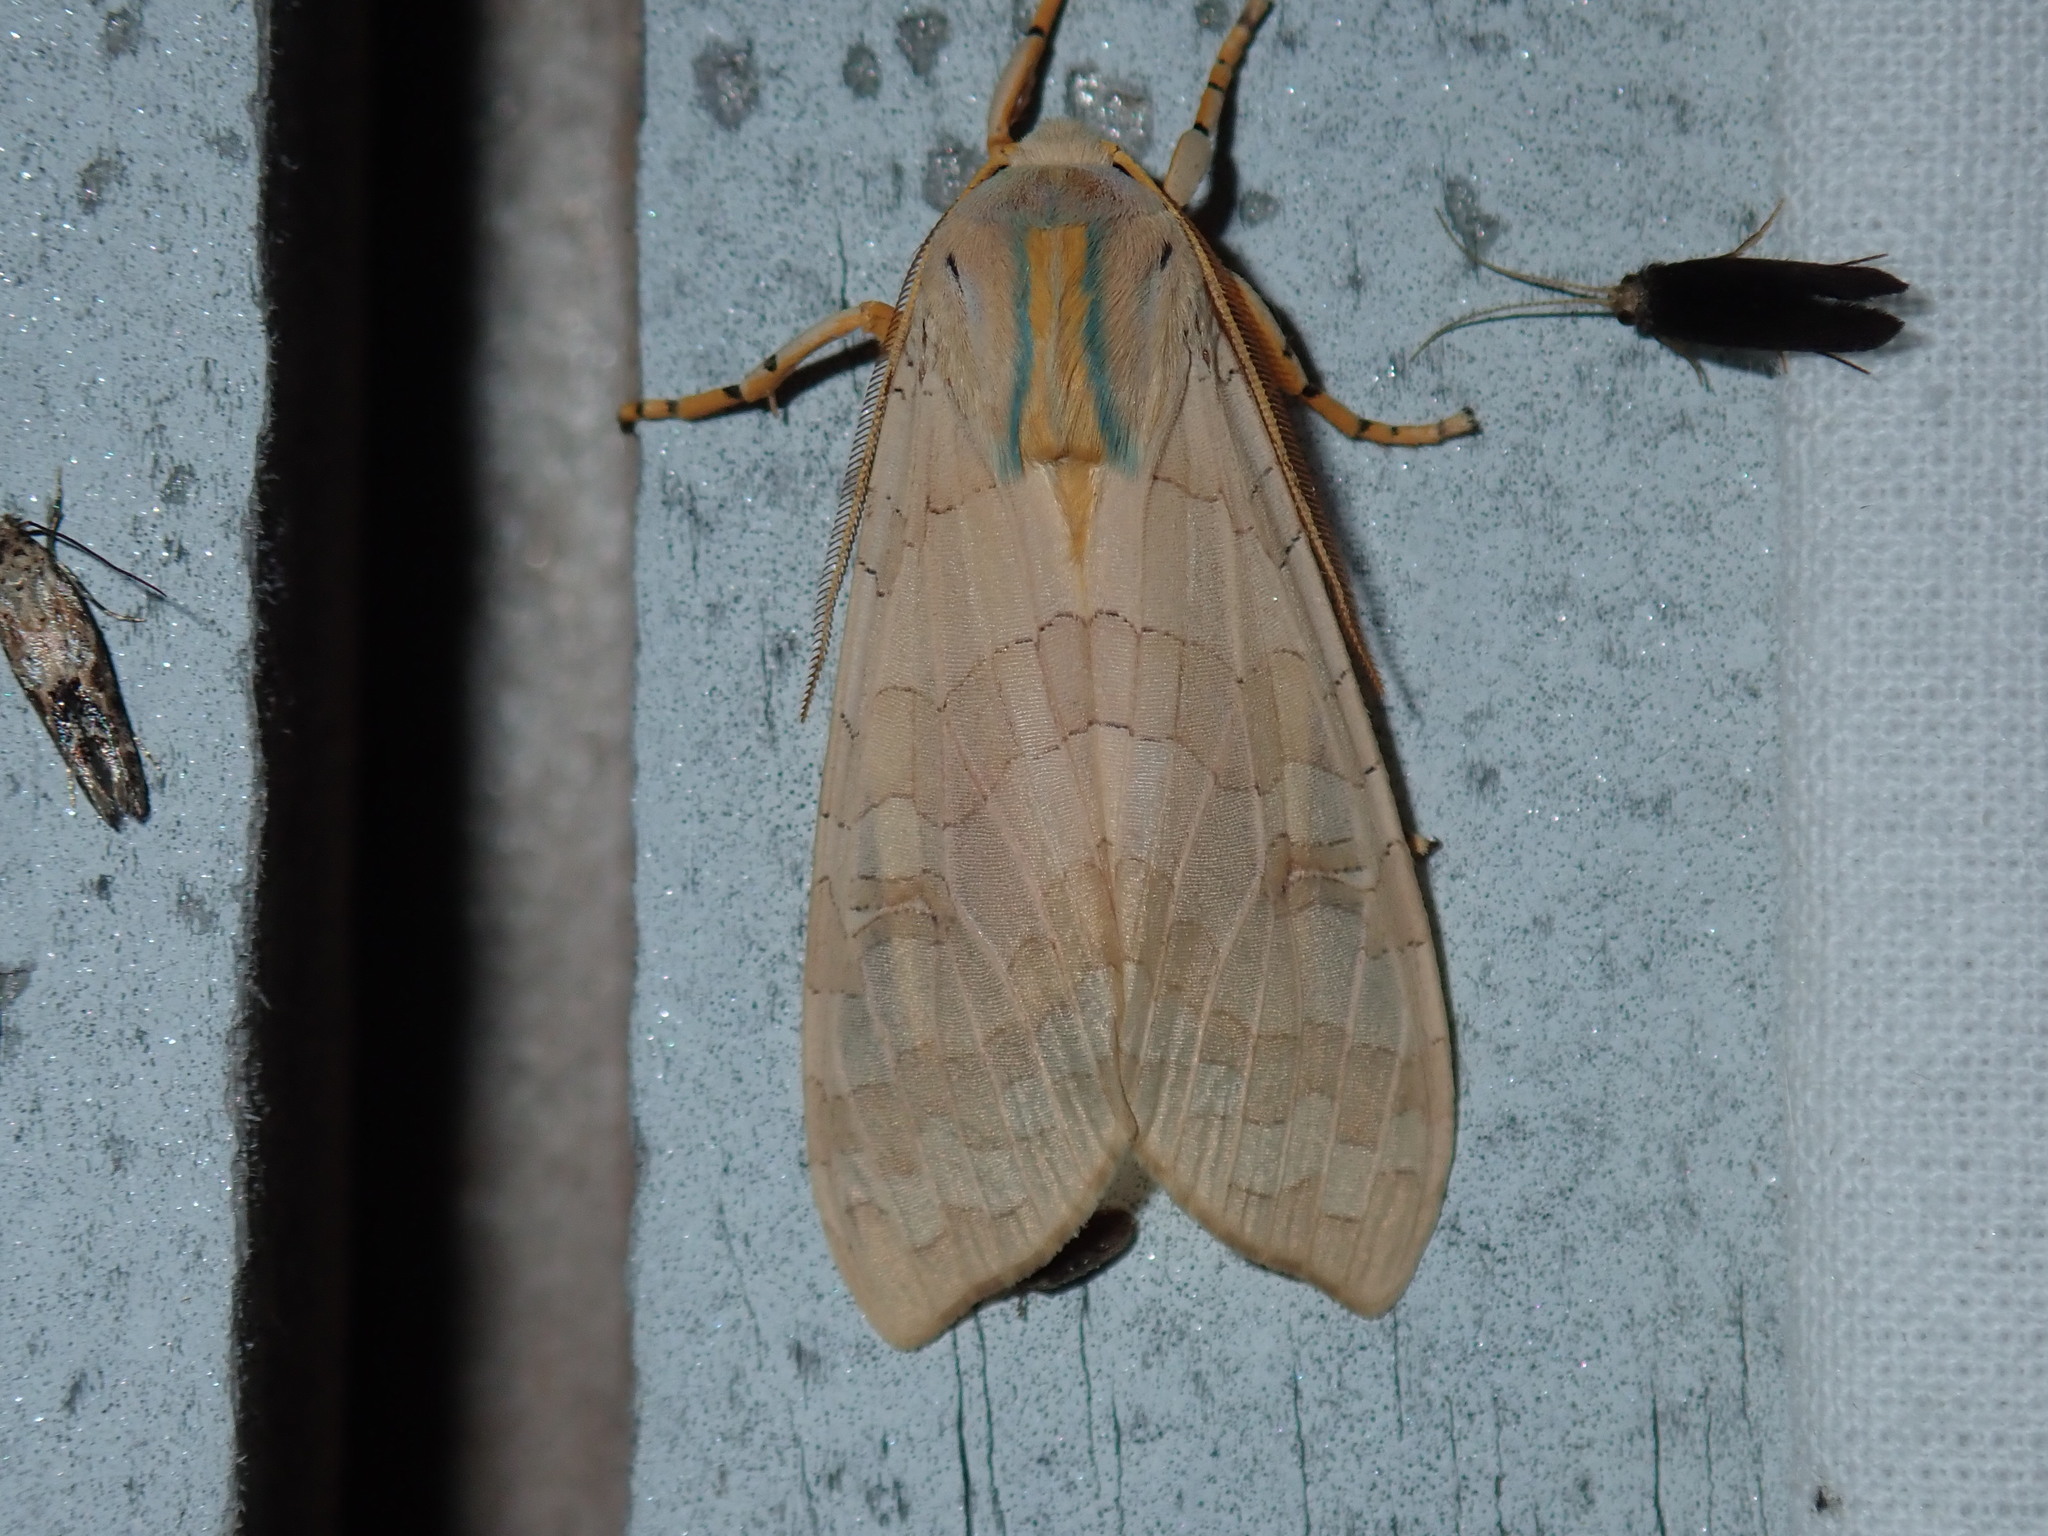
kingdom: Animalia
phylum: Arthropoda
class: Insecta
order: Lepidoptera
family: Erebidae
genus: Halysidota
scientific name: Halysidota
